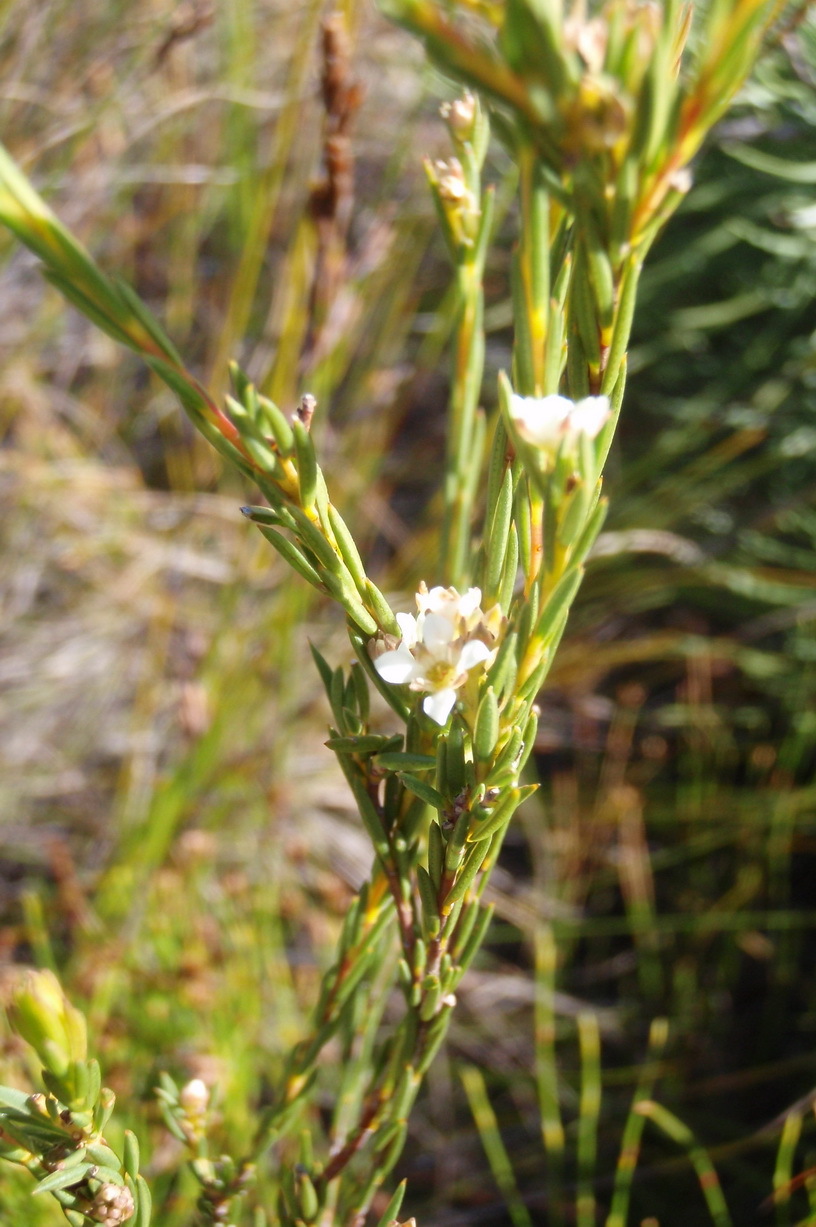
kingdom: Plantae
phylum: Tracheophyta
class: Magnoliopsida
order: Sapindales
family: Rutaceae
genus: Diosma
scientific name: Diosma hirsuta
